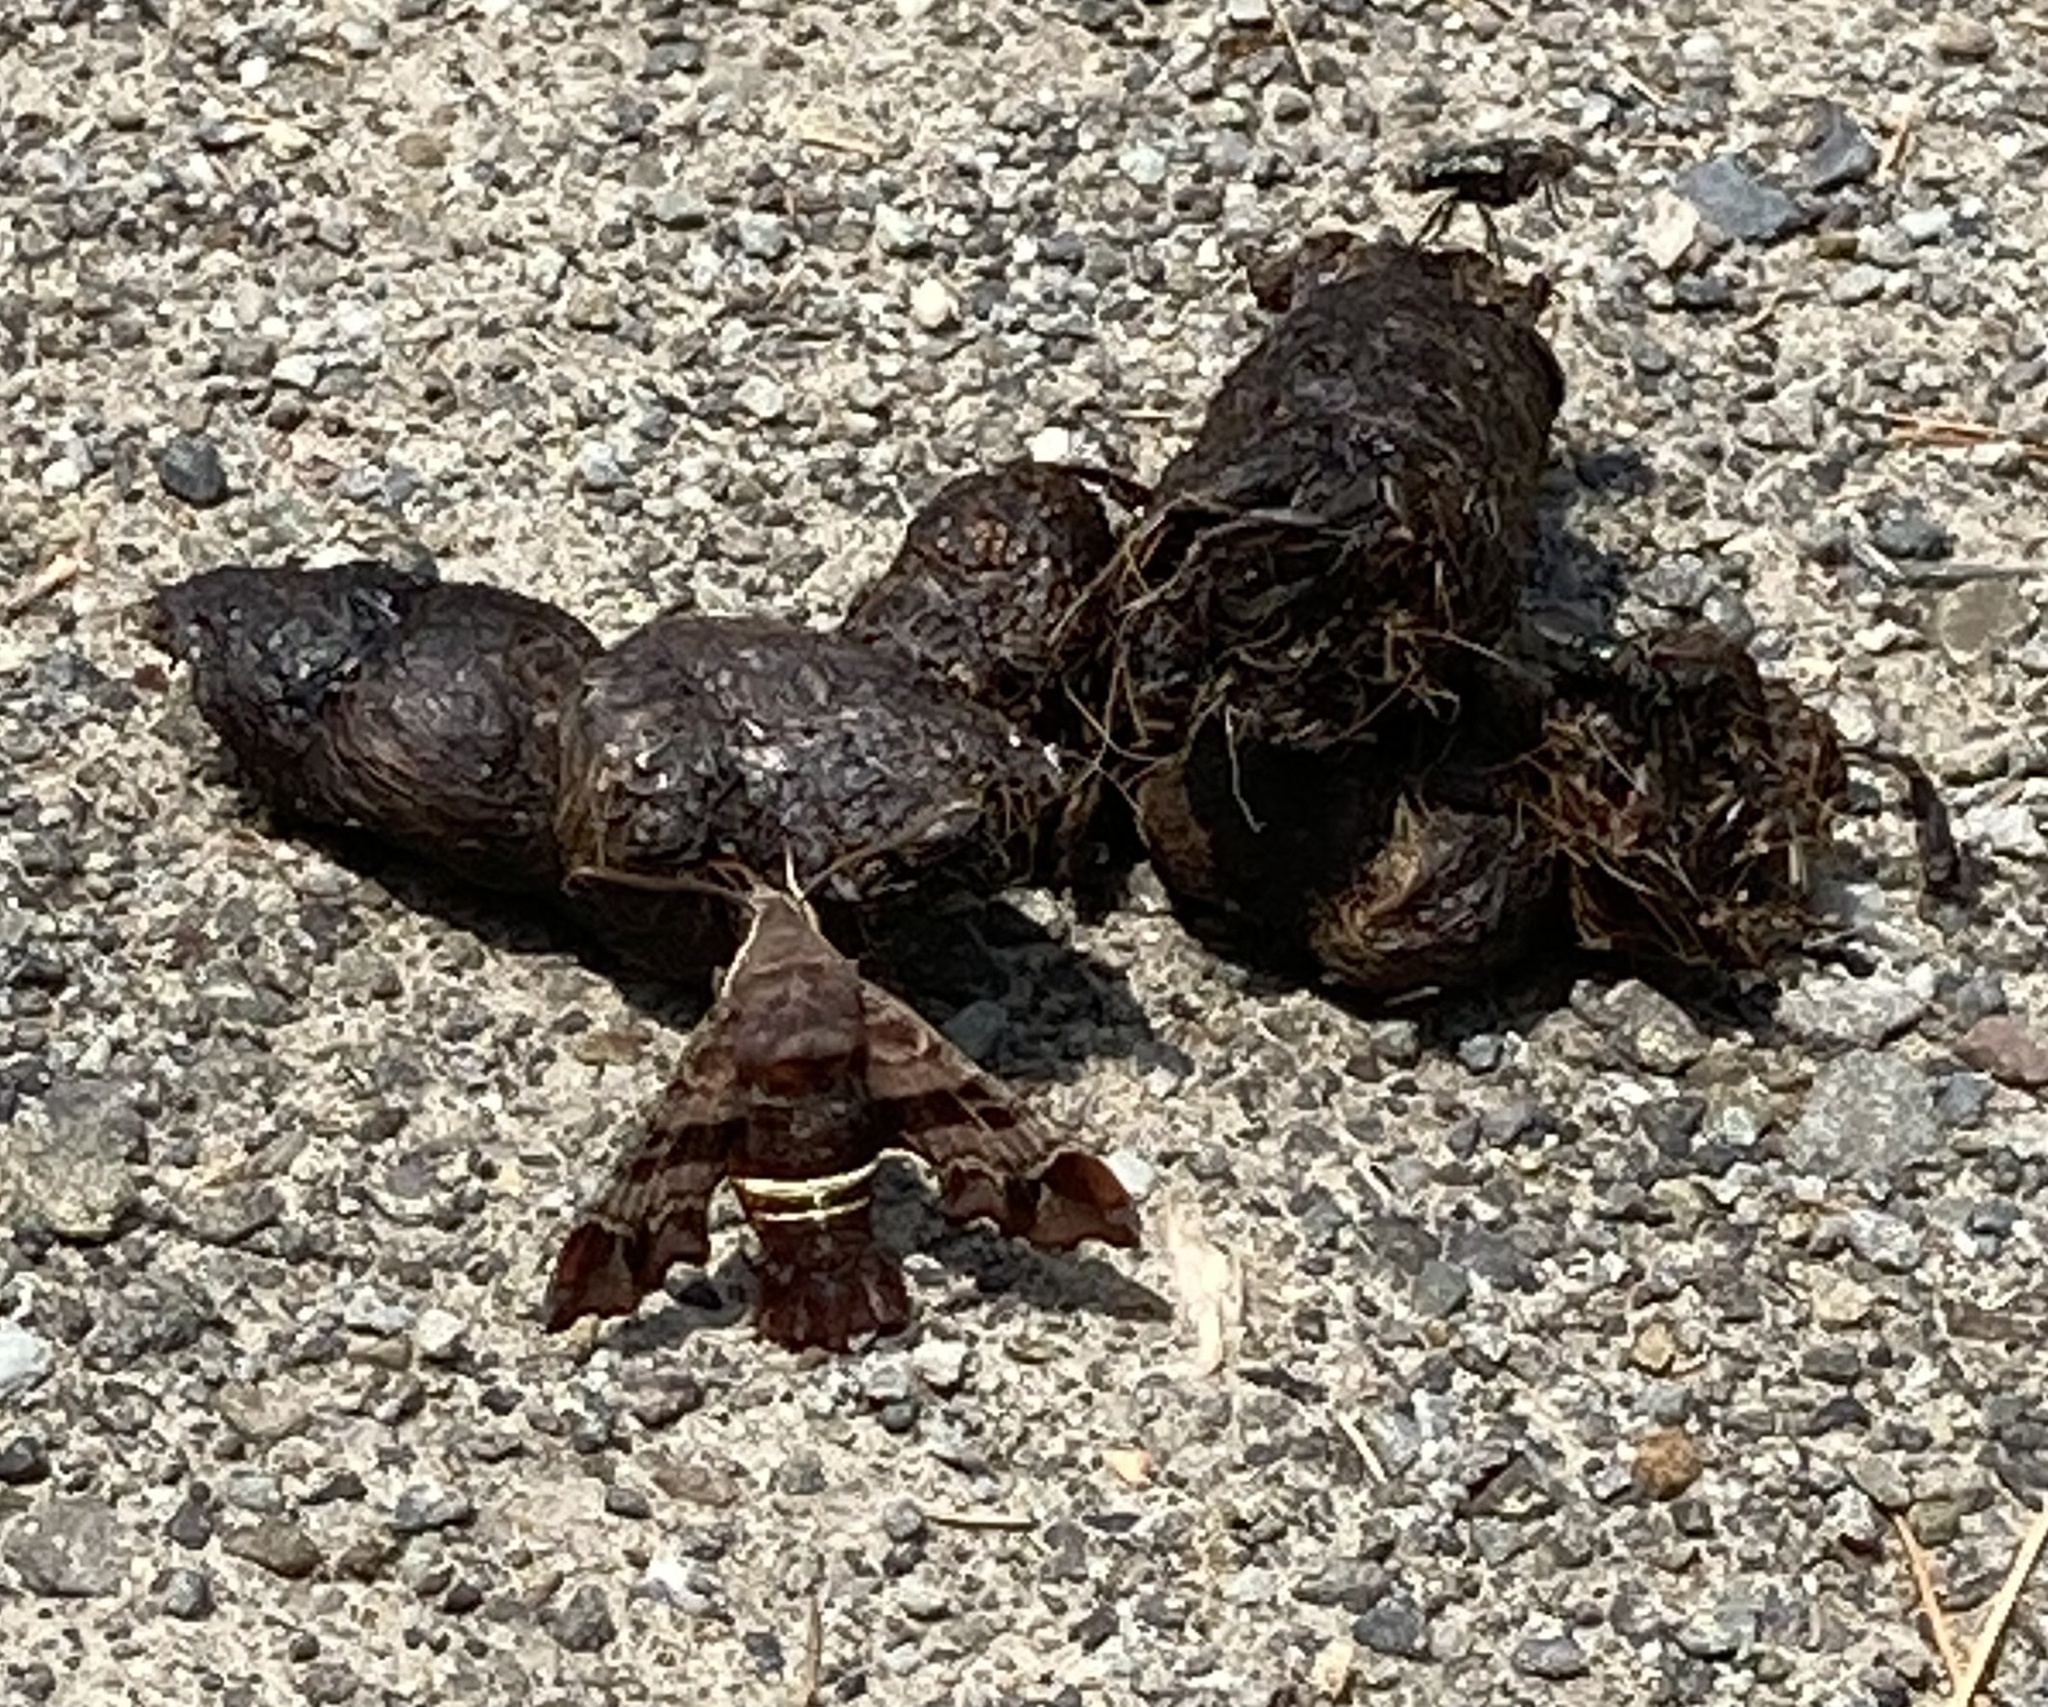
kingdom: Animalia
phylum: Arthropoda
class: Insecta
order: Lepidoptera
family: Sphingidae
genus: Amphion
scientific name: Amphion floridensis
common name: Nessus sphinx
